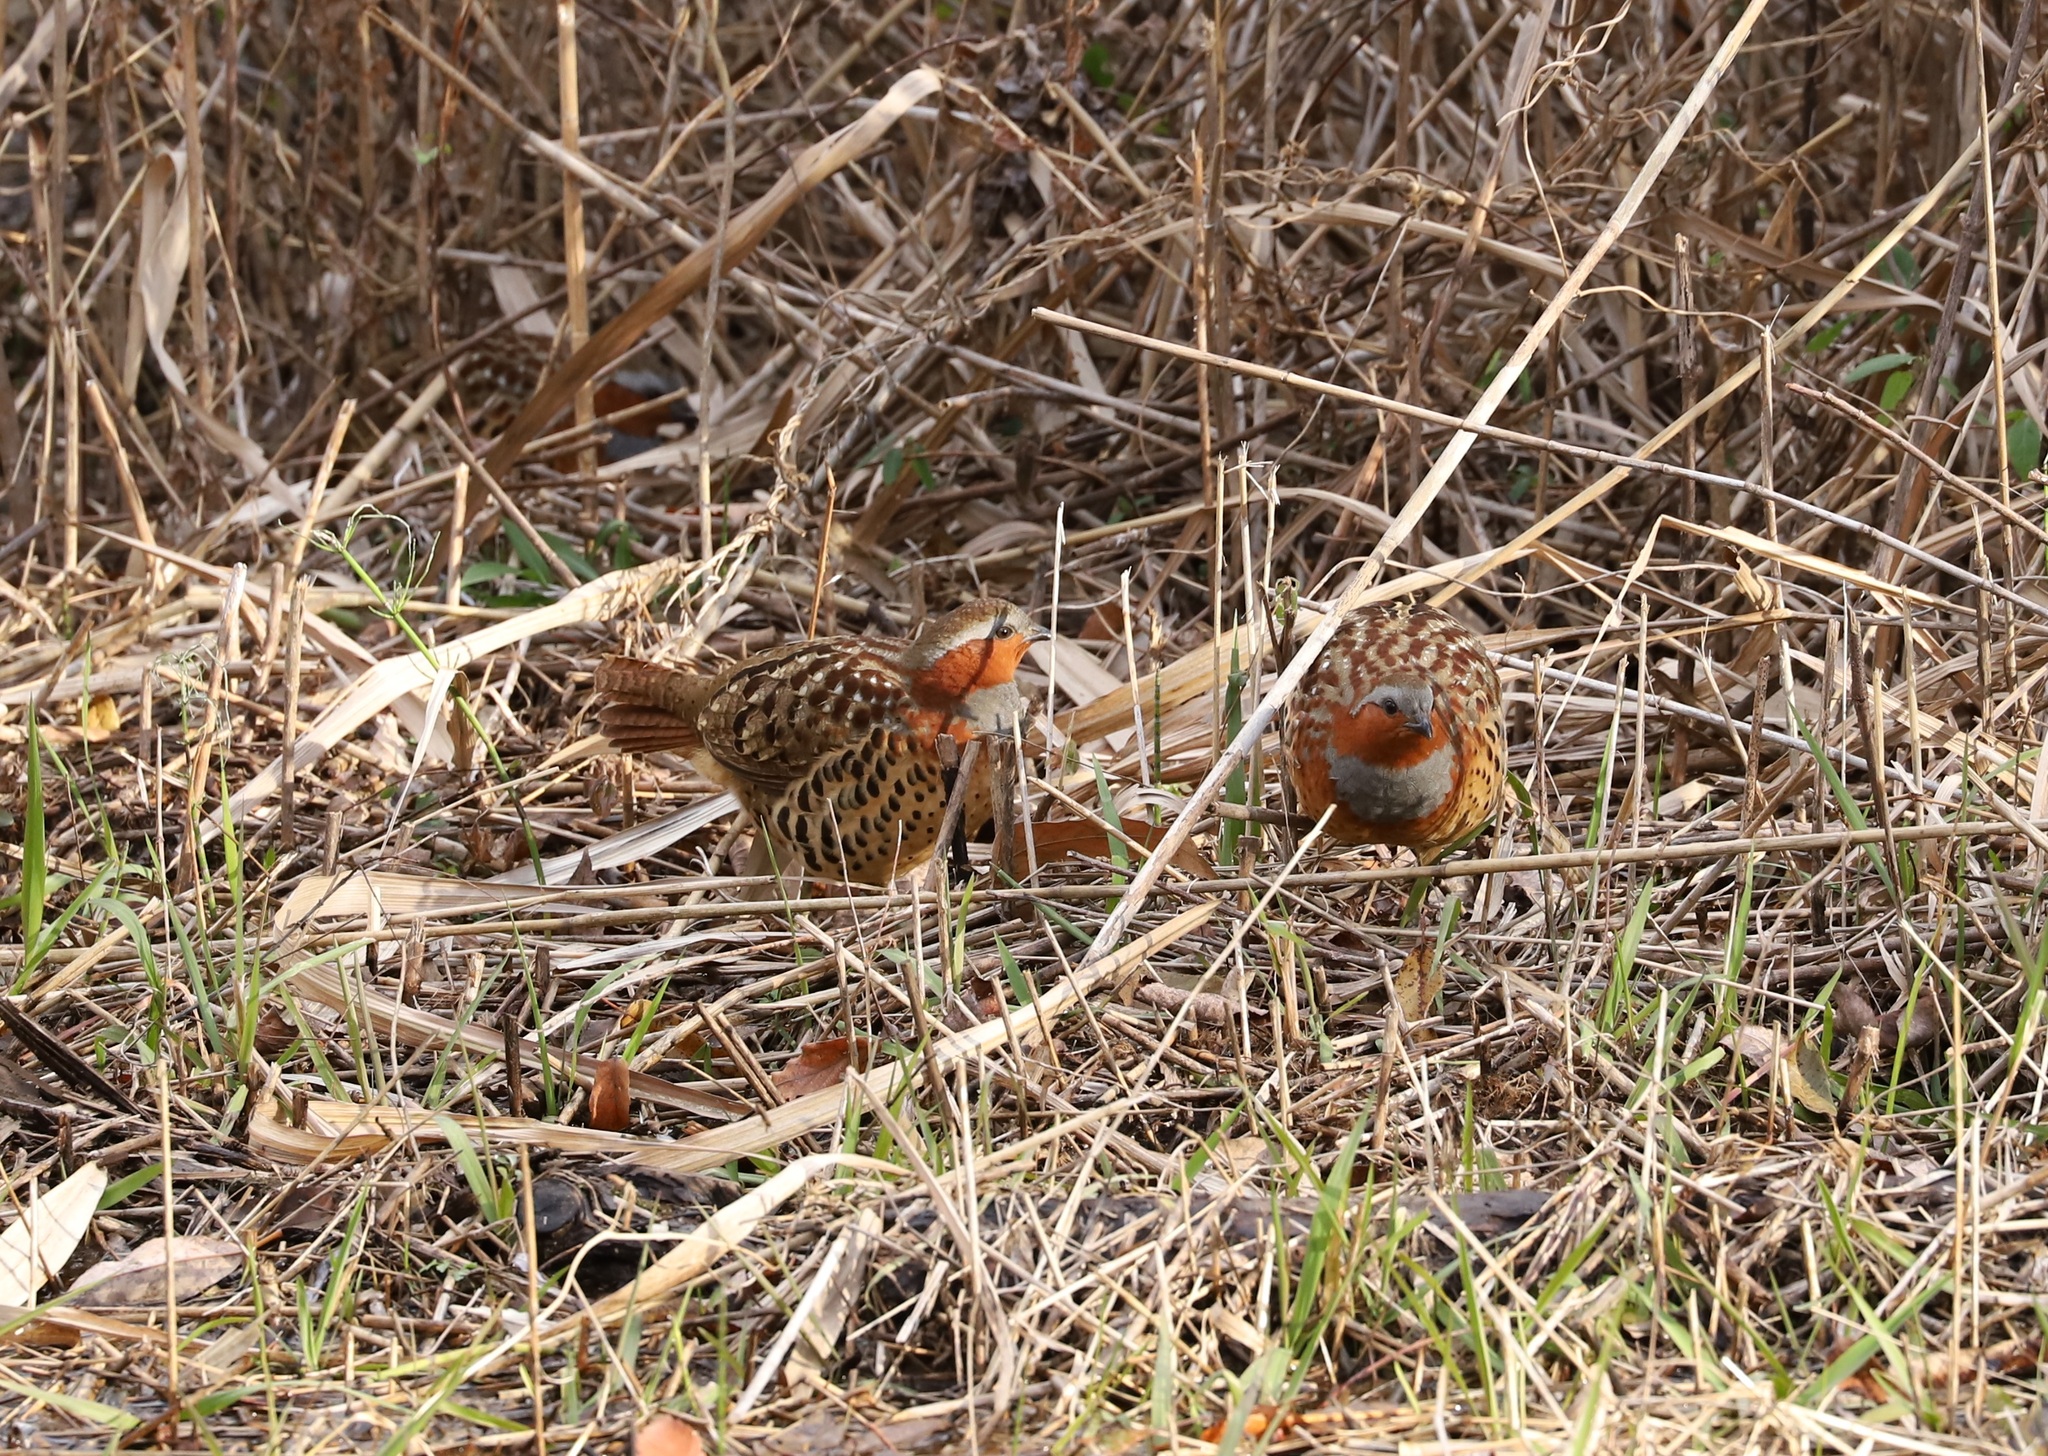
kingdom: Animalia
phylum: Chordata
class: Aves
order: Galliformes
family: Phasianidae
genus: Bambusicola
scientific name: Bambusicola thoracicus
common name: Chinese bamboo partridge
